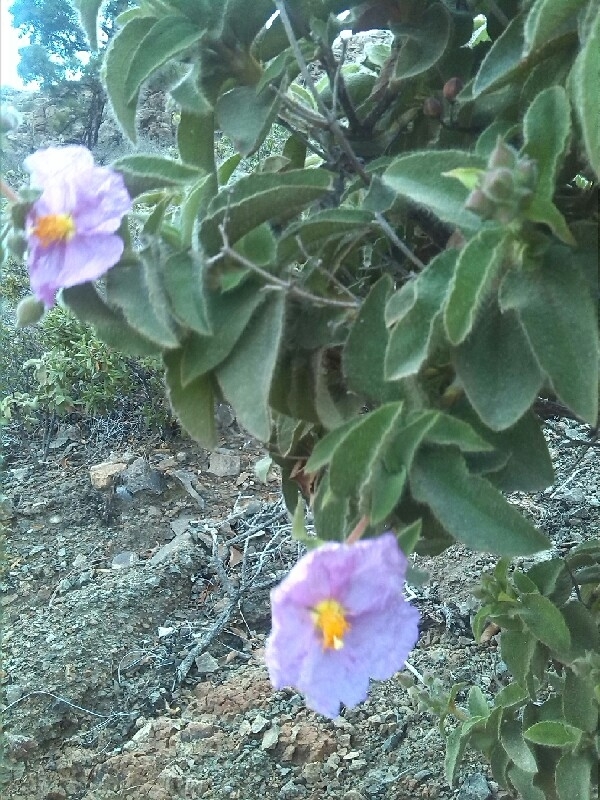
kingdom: Plantae
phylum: Tracheophyta
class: Magnoliopsida
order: Malvales
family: Cistaceae
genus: Cistus
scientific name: Cistus horrens
